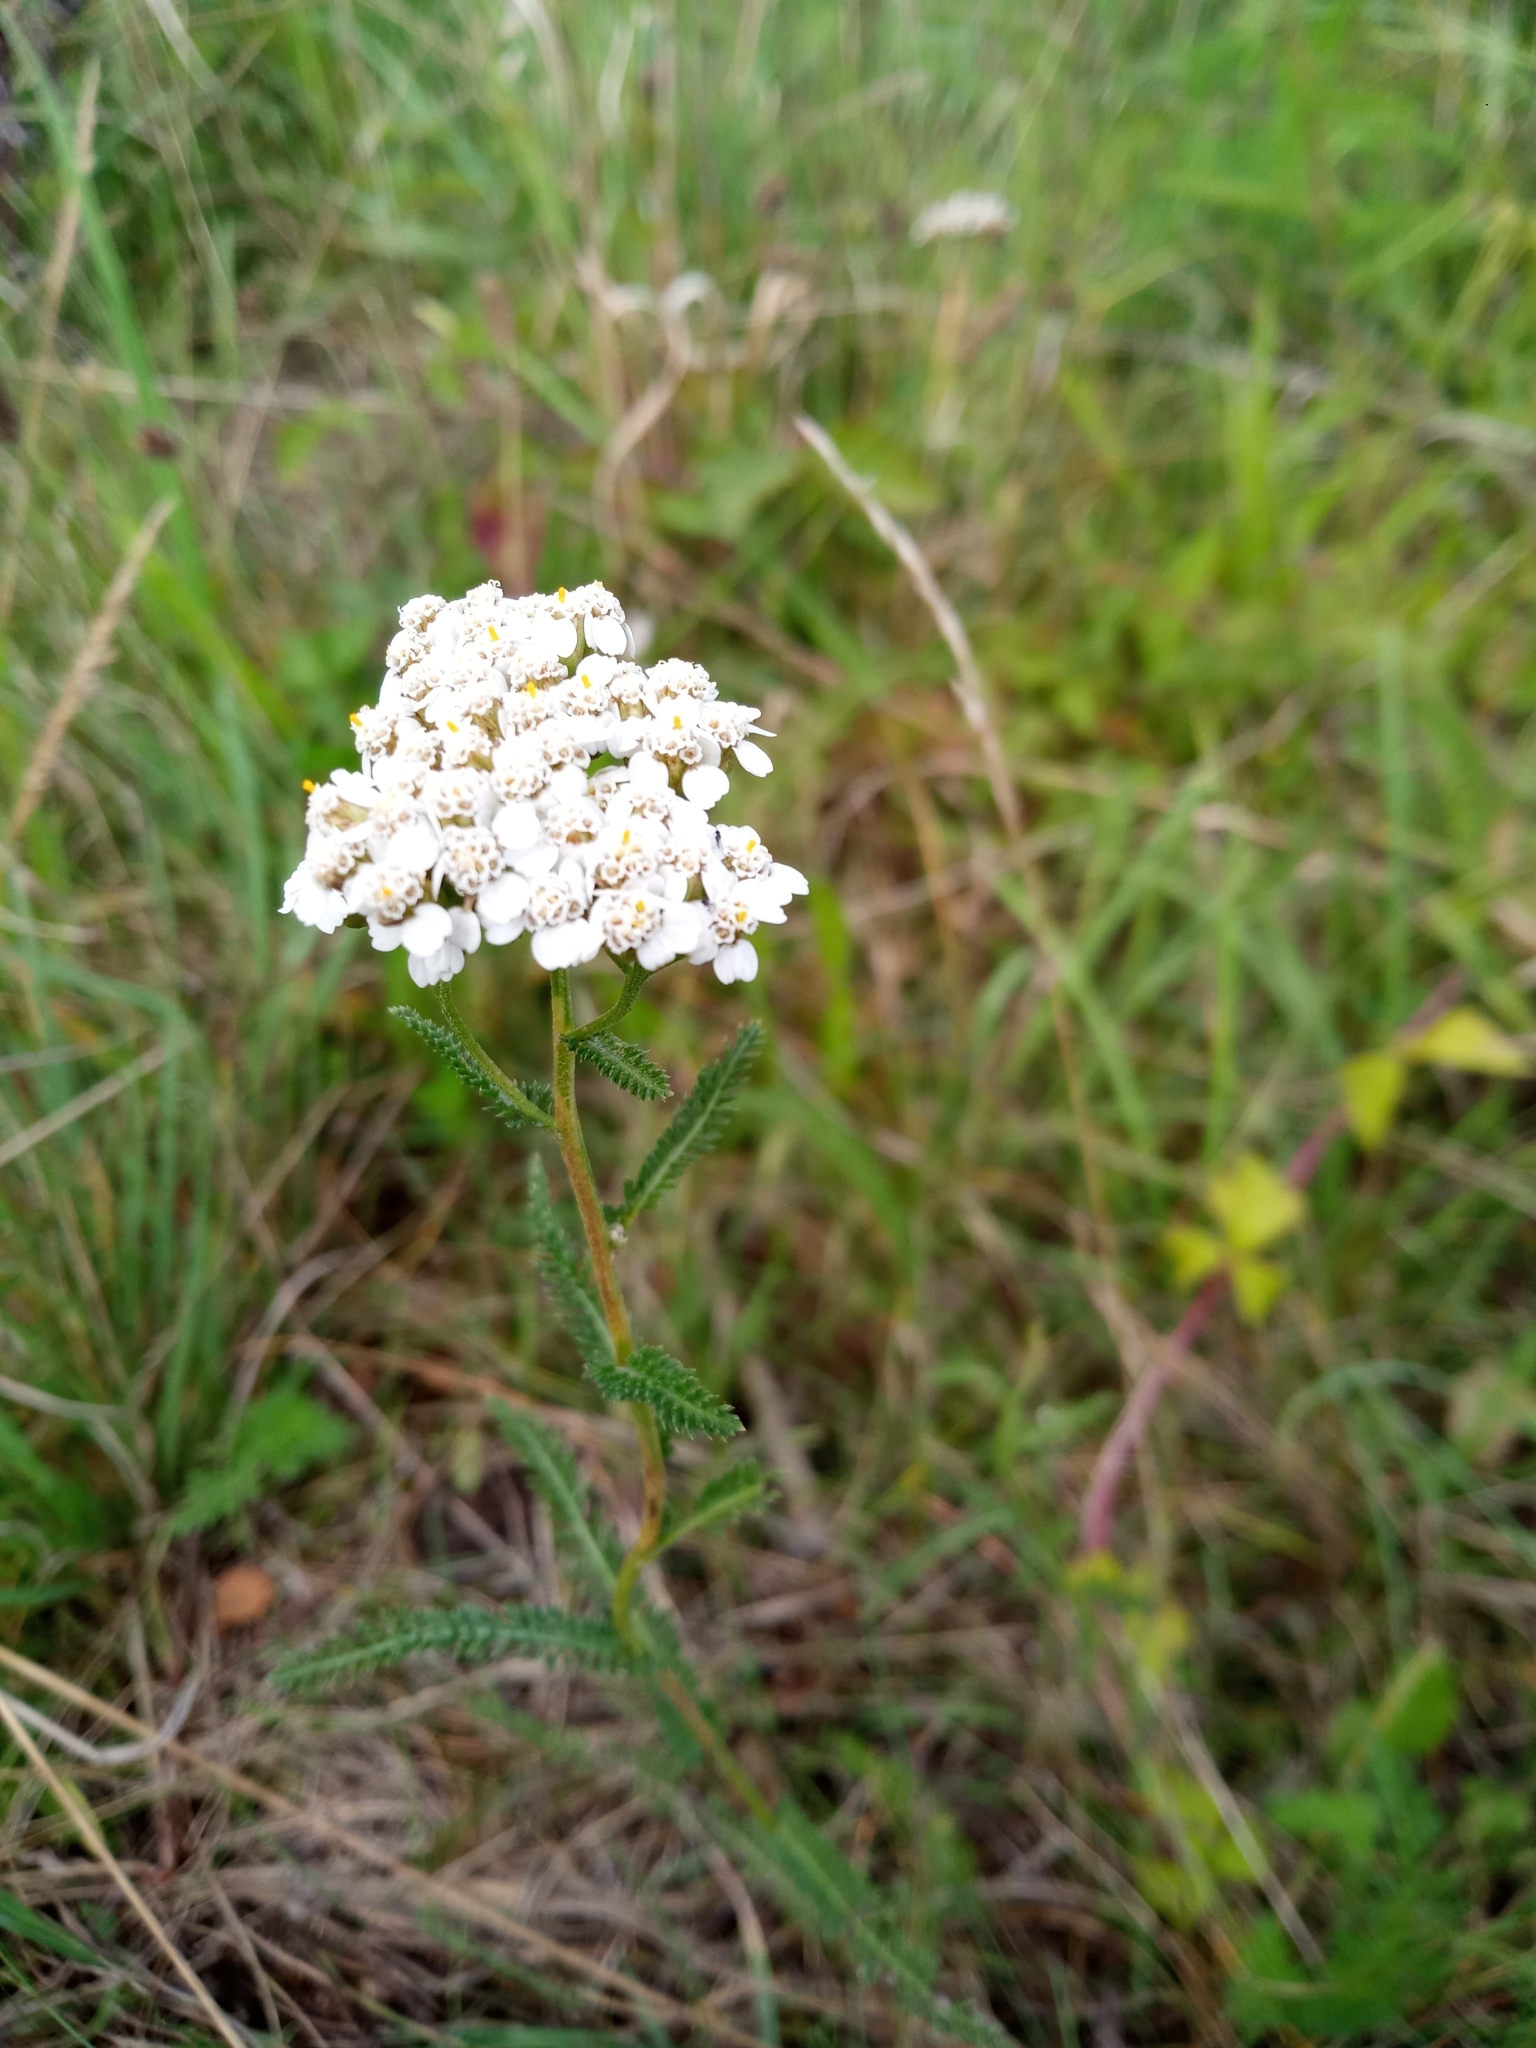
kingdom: Plantae
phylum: Tracheophyta
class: Magnoliopsida
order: Asterales
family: Asteraceae
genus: Achillea
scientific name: Achillea millefolium
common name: Yarrow
